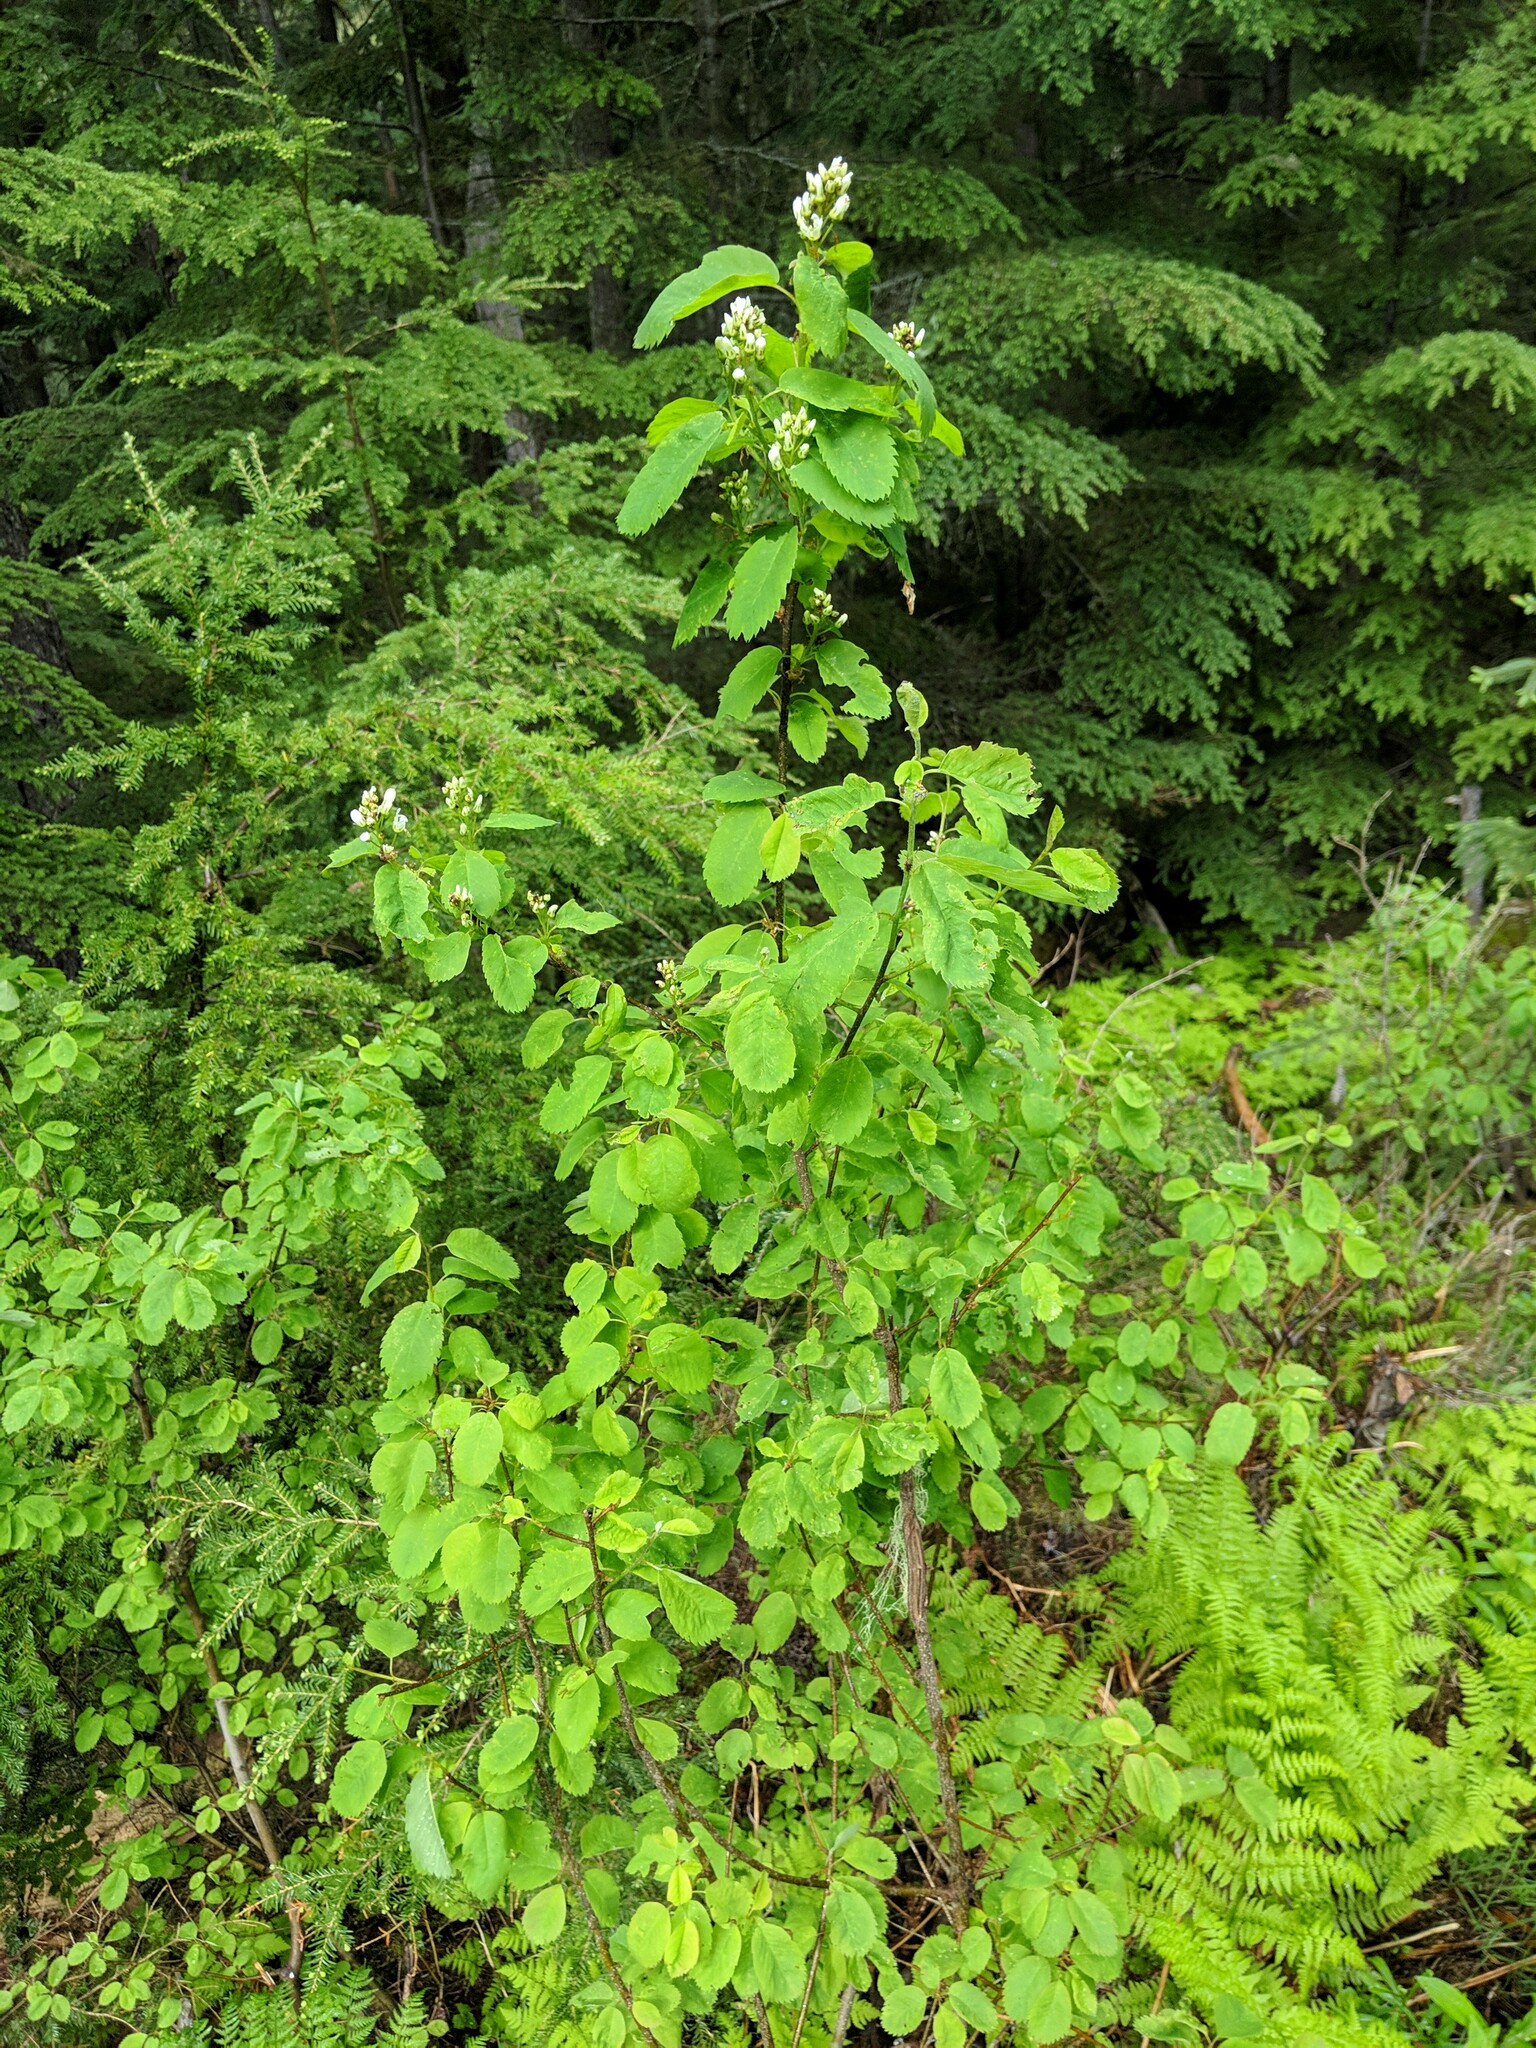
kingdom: Plantae
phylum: Tracheophyta
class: Magnoliopsida
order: Rosales
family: Rosaceae
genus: Amelanchier
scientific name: Amelanchier alnifolia
